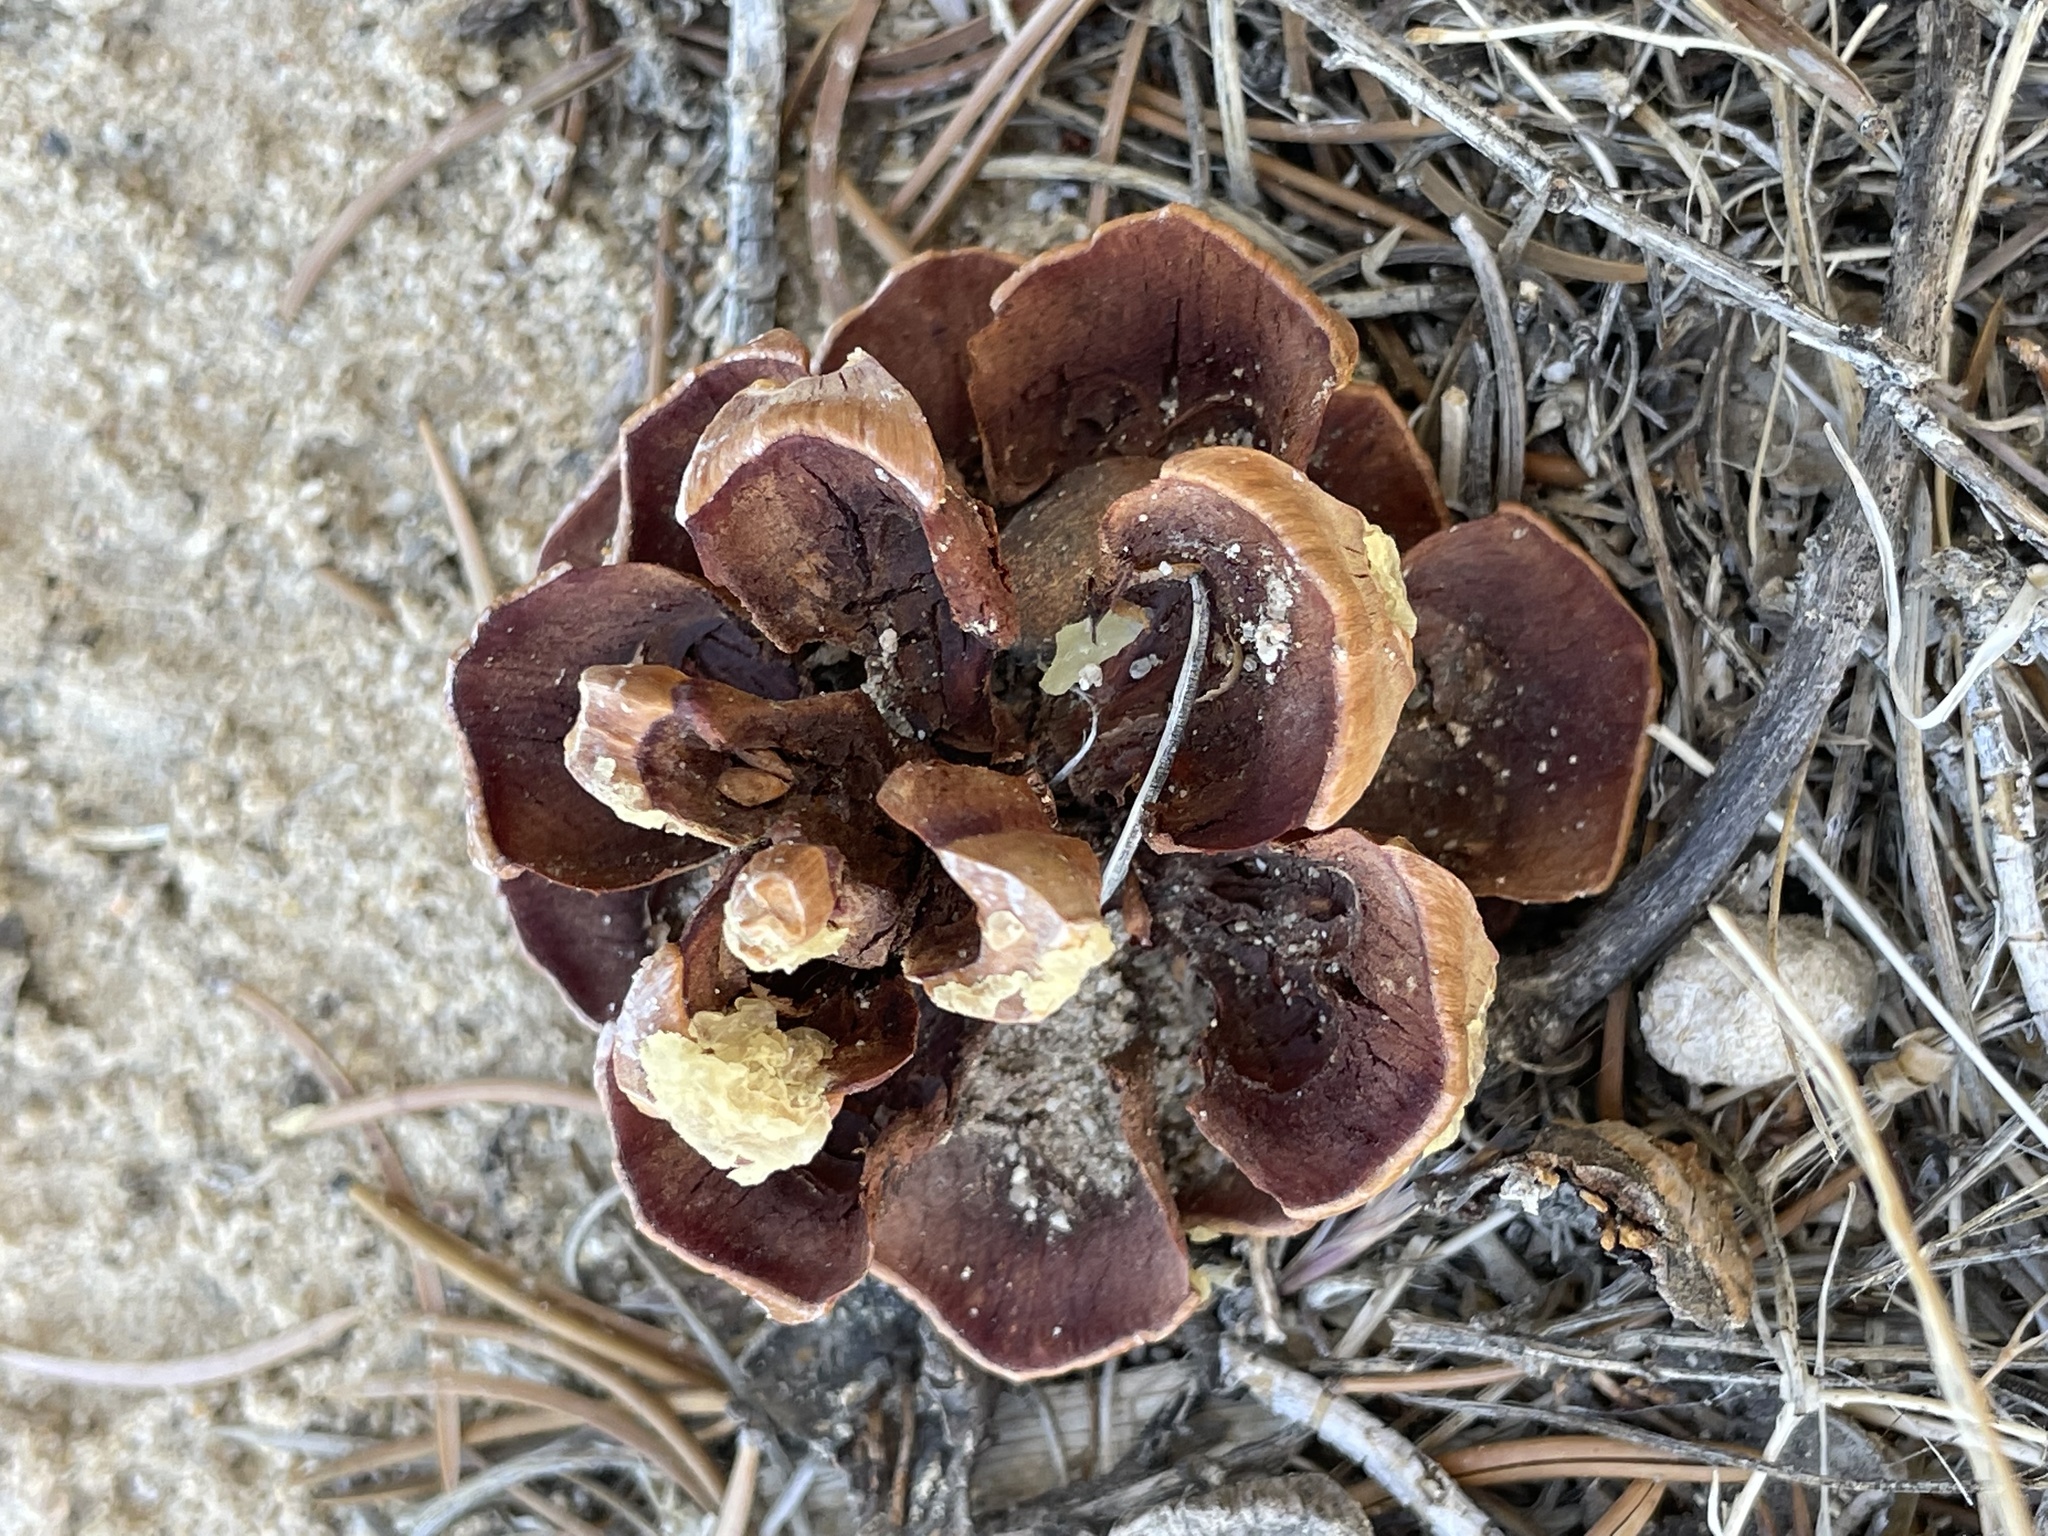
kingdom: Plantae
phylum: Tracheophyta
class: Pinopsida
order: Pinales
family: Pinaceae
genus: Pinus
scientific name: Pinus edulis
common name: Colorado pinyon
